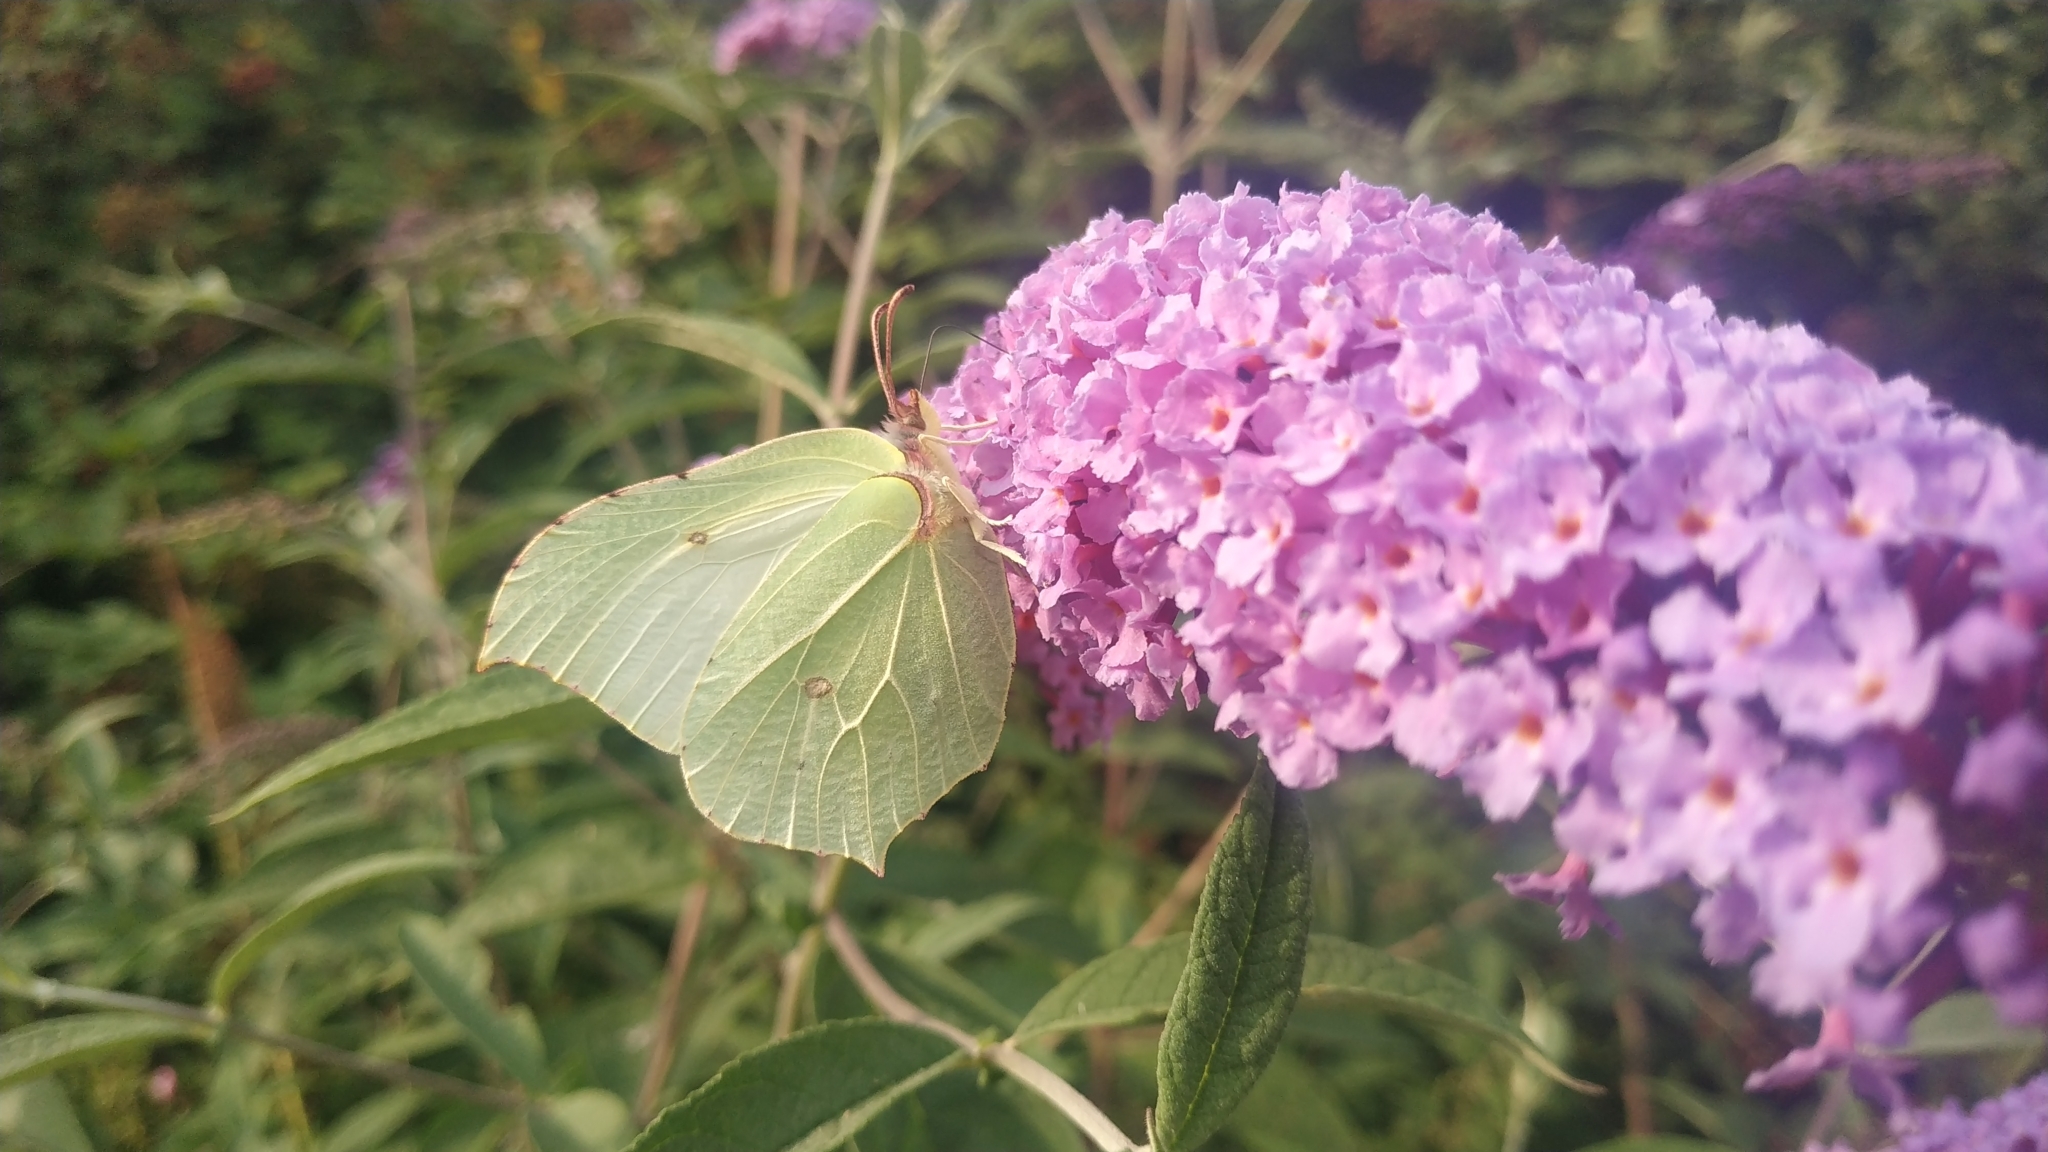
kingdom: Animalia
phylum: Arthropoda
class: Insecta
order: Lepidoptera
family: Pieridae
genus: Gonepteryx
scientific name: Gonepteryx rhamni
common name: Brimstone
